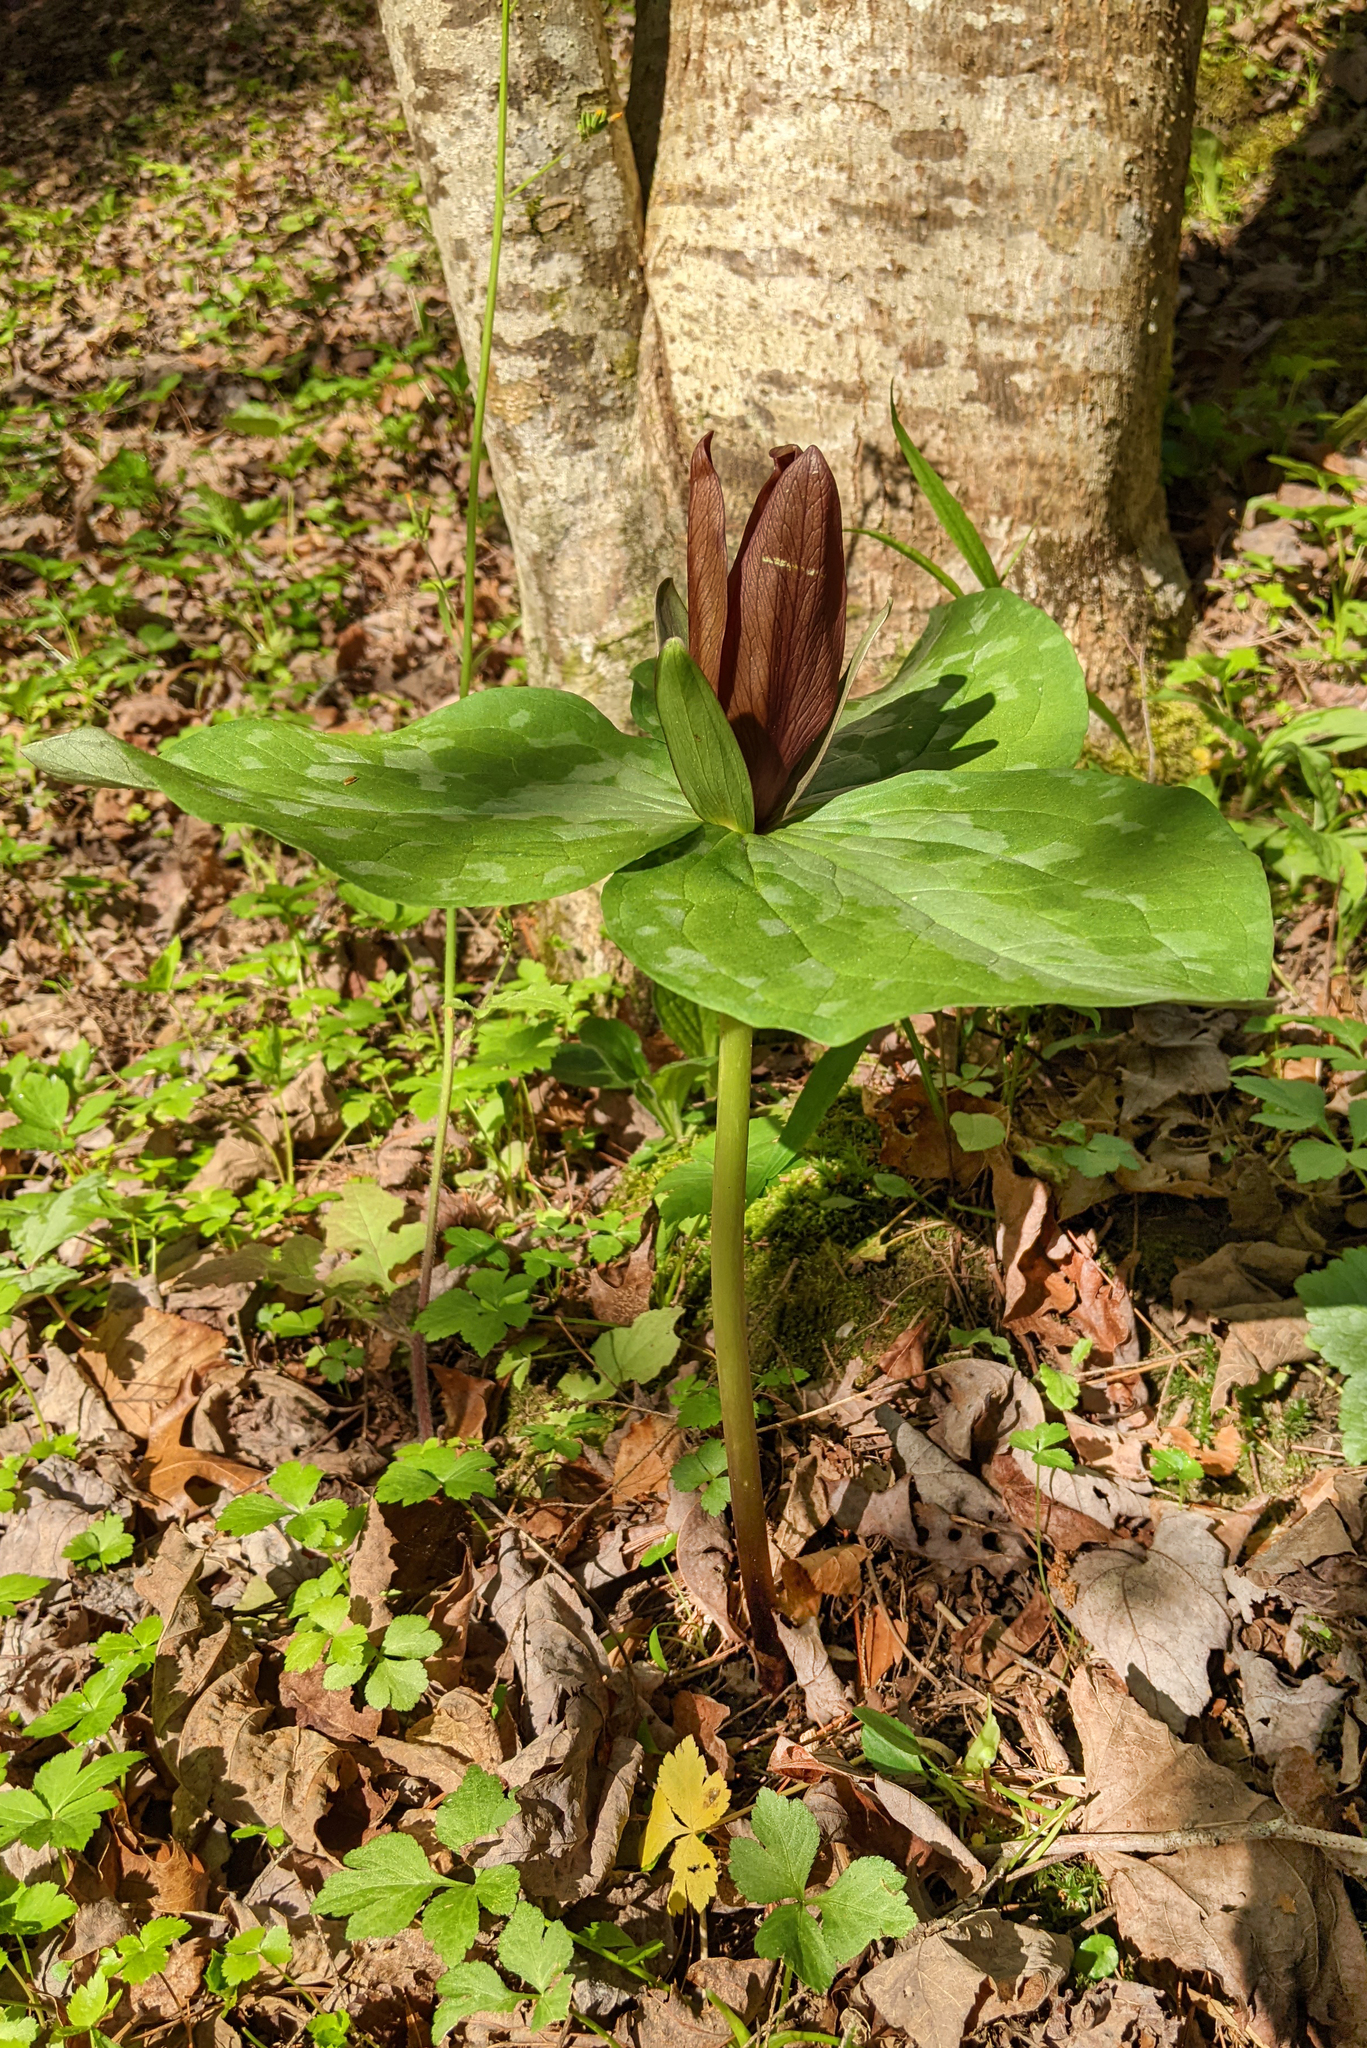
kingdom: Plantae
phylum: Tracheophyta
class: Liliopsida
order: Liliales
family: Melanthiaceae
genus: Trillium
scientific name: Trillium cuneatum
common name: Cuneate trillium
